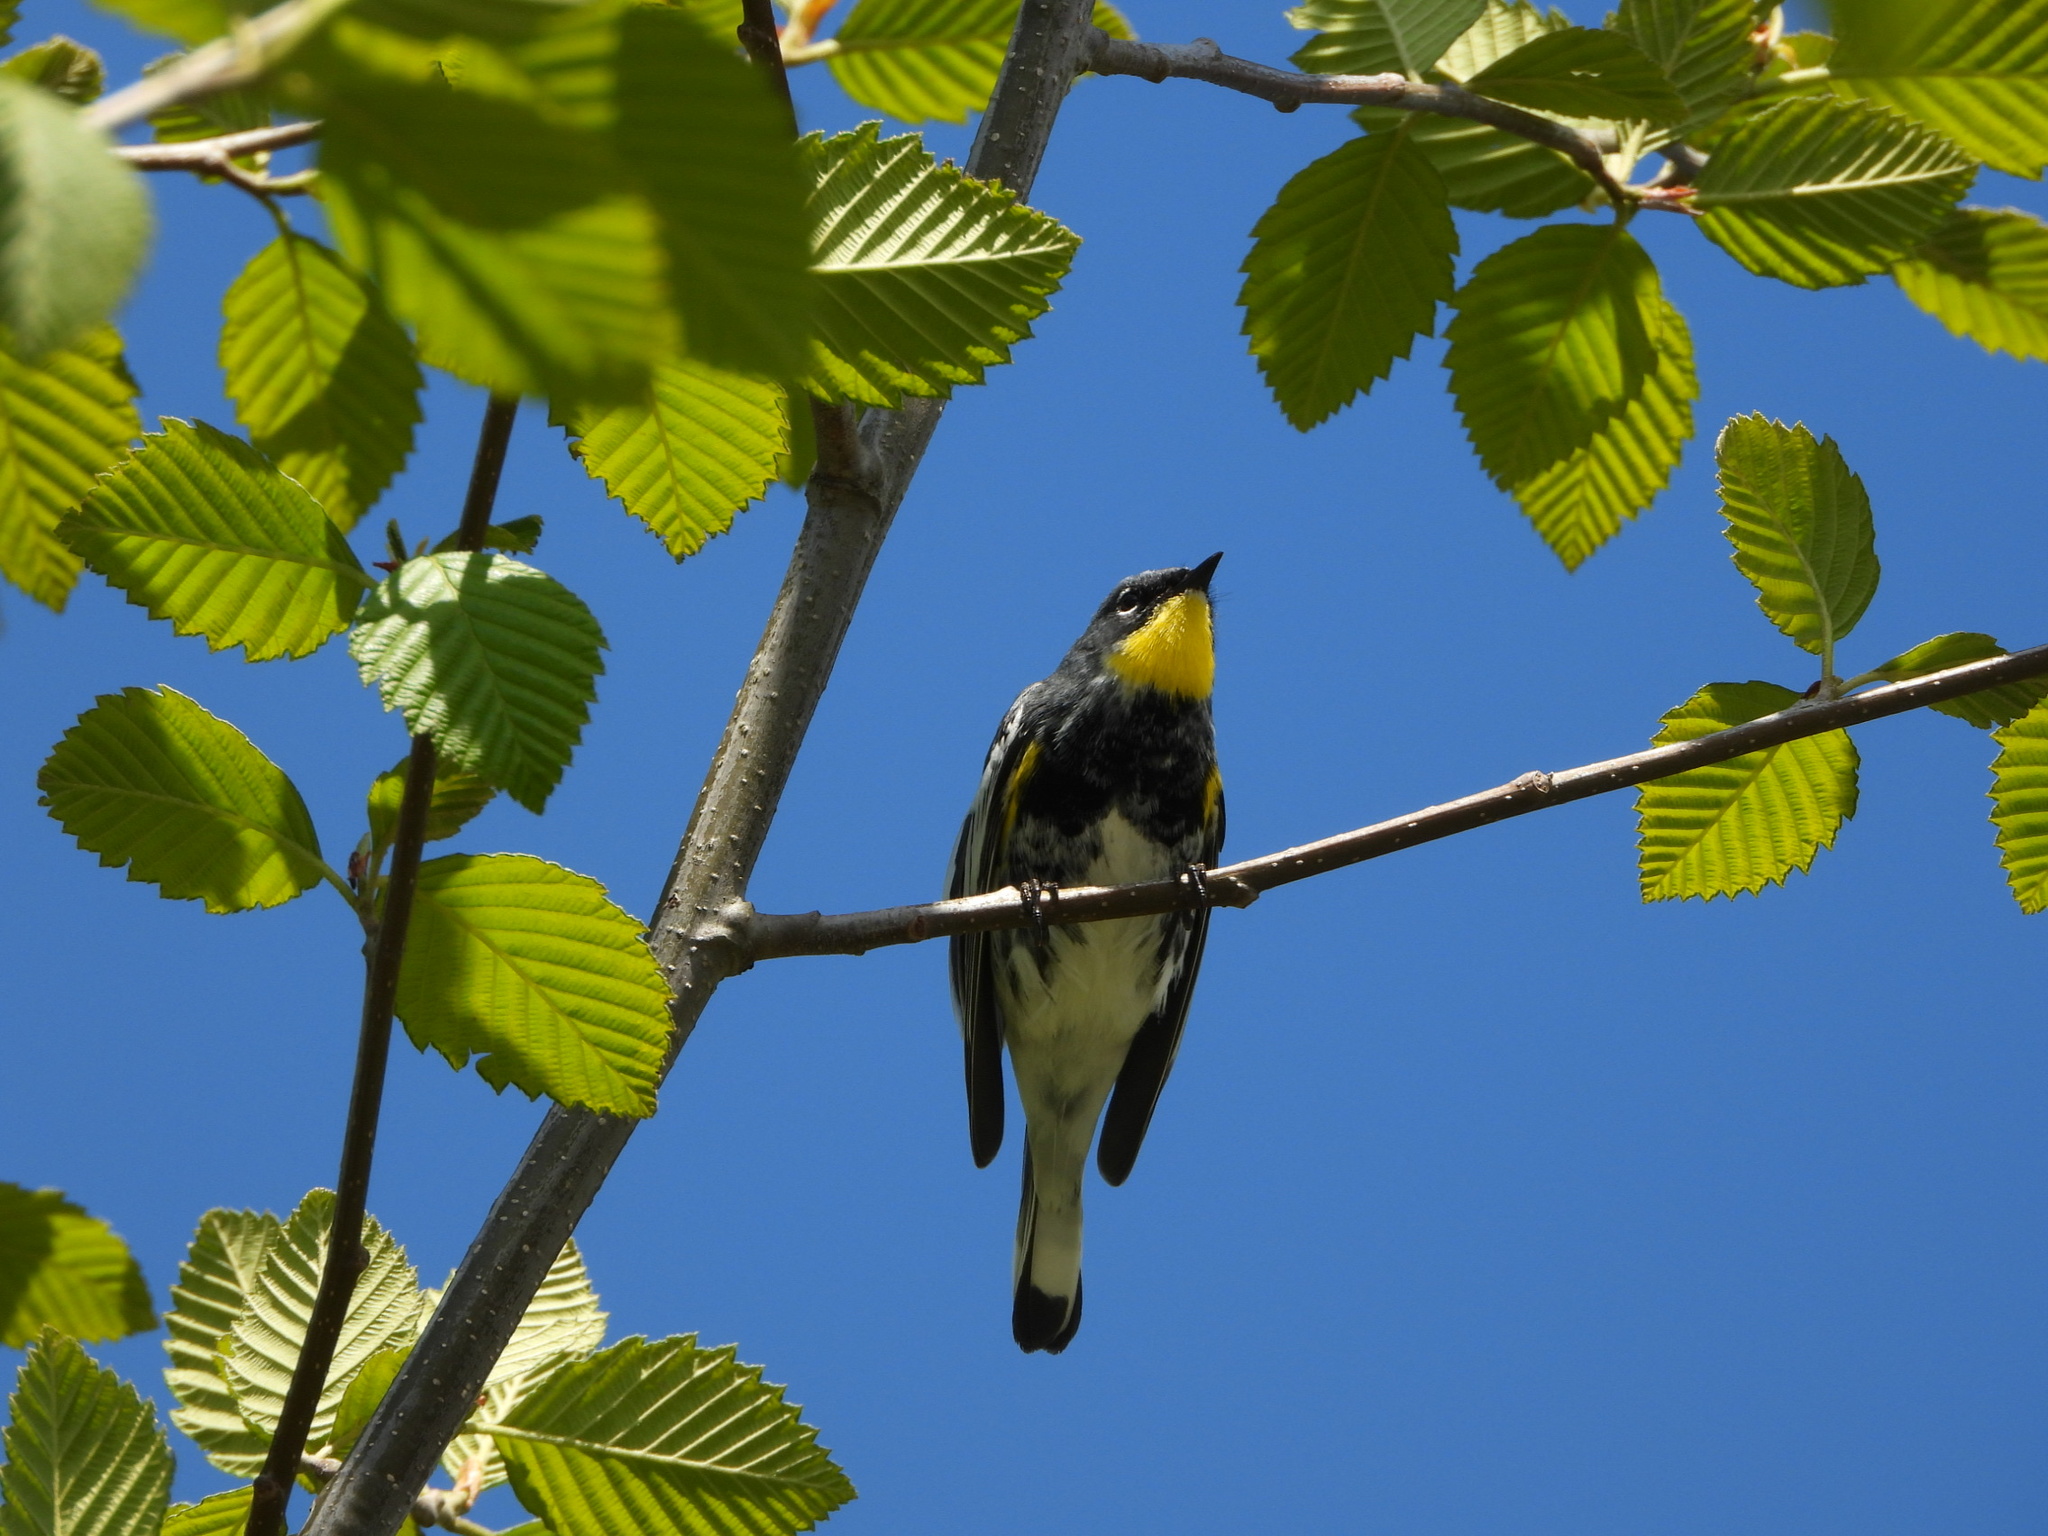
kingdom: Animalia
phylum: Chordata
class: Aves
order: Passeriformes
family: Parulidae
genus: Setophaga
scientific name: Setophaga auduboni
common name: Audubon's warbler
